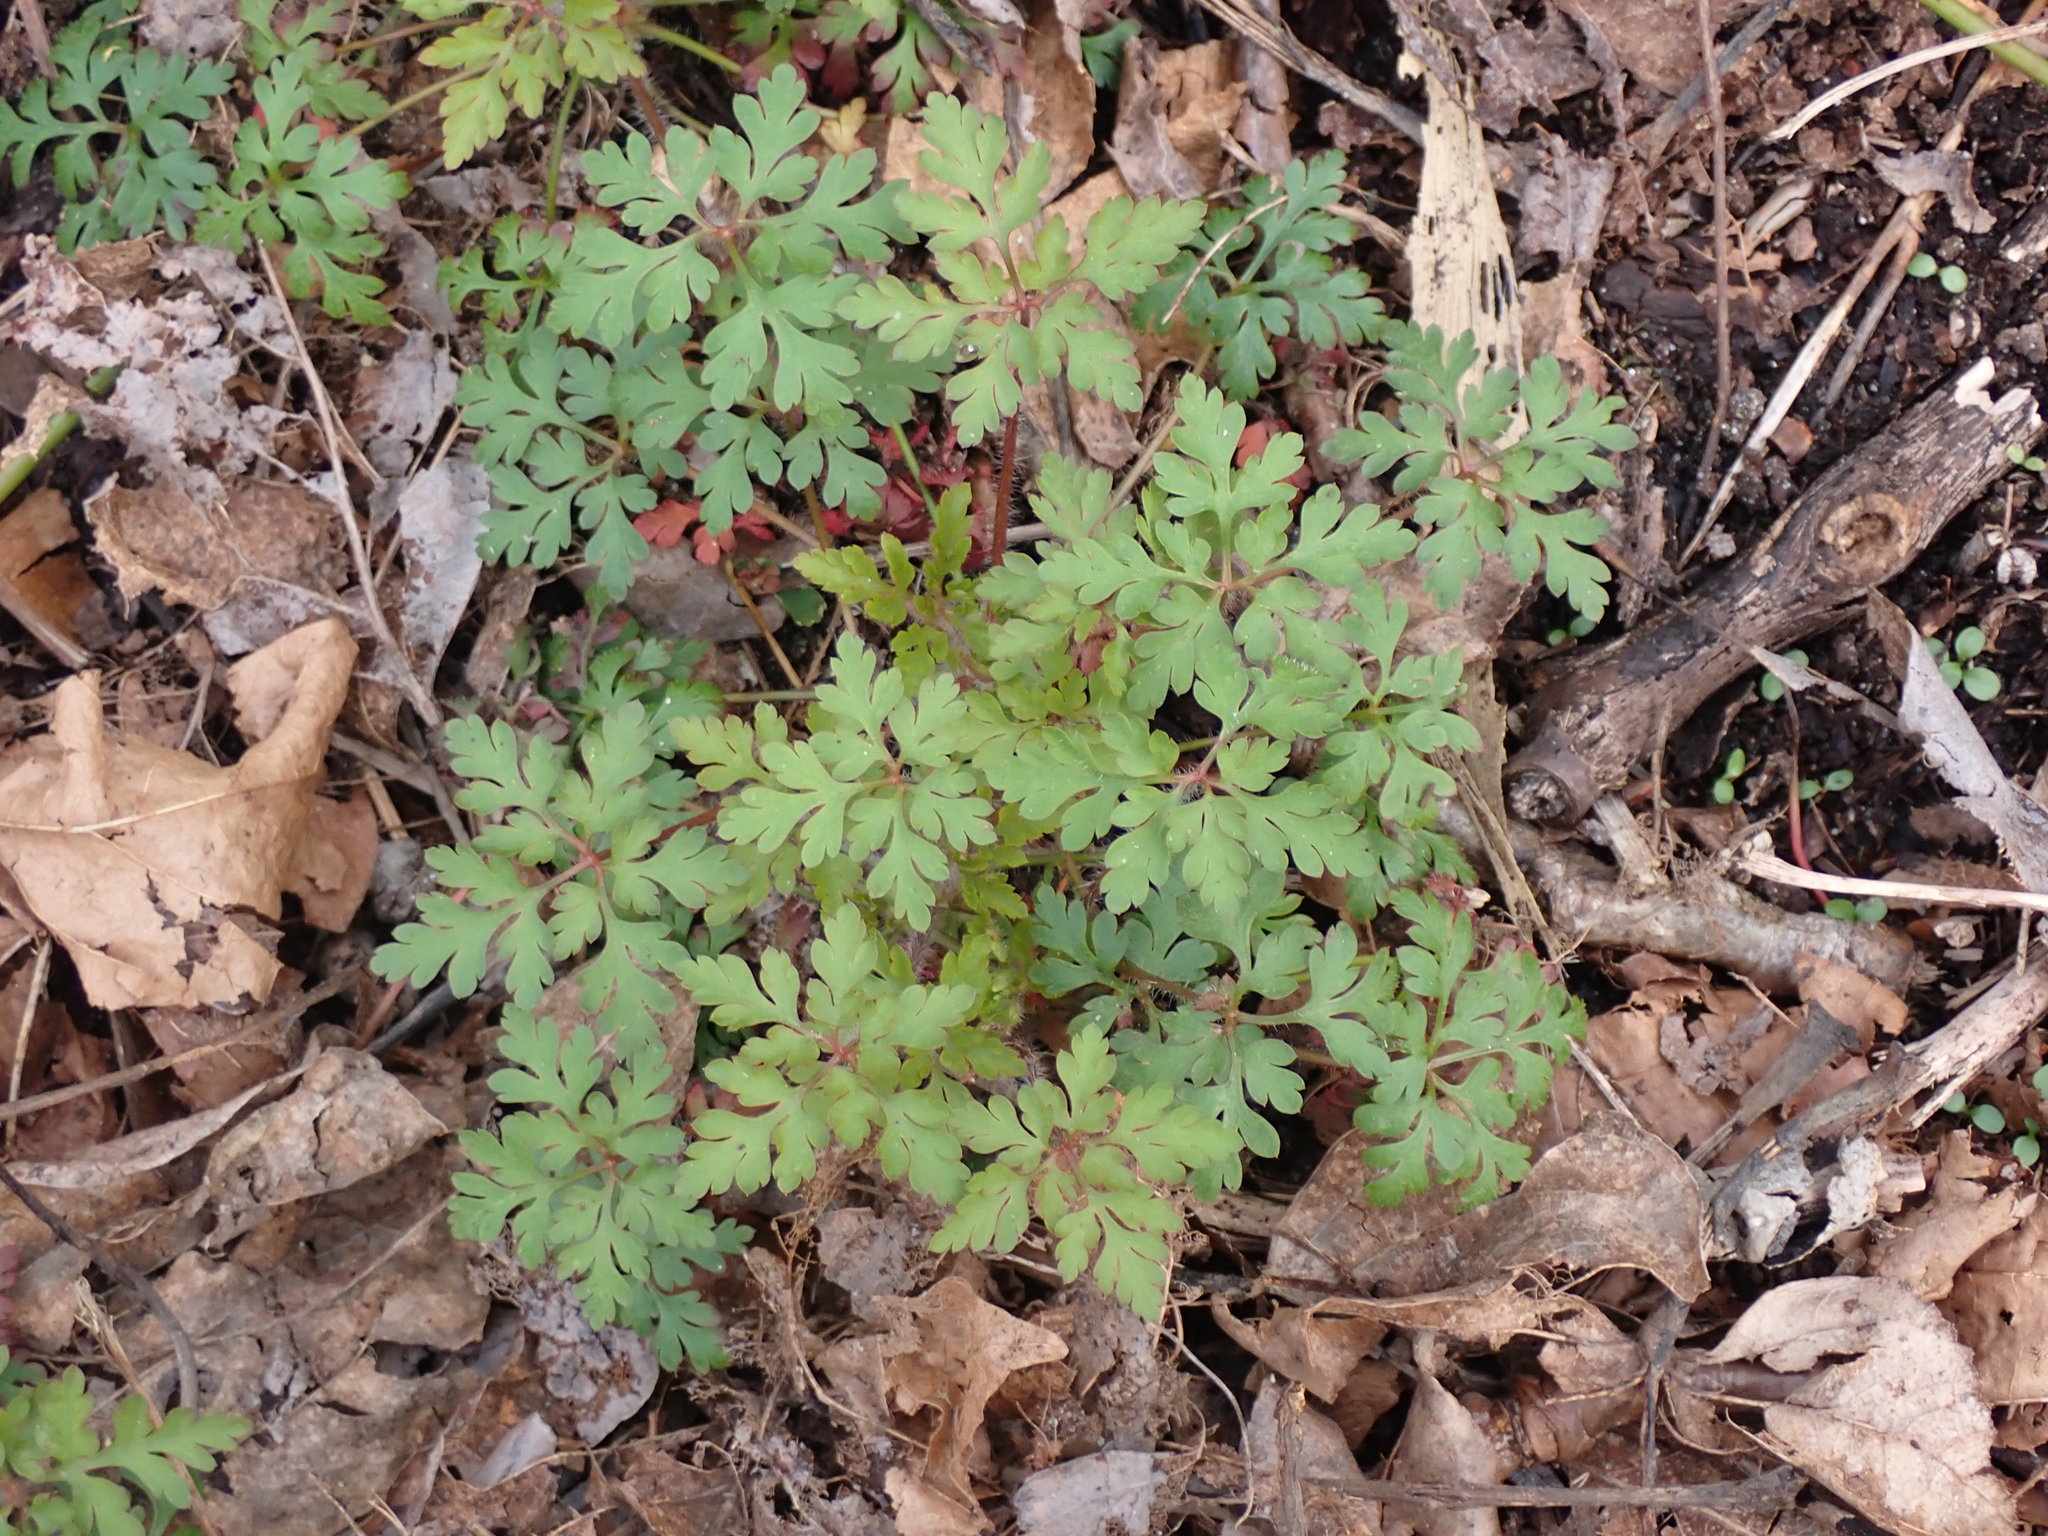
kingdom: Plantae
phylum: Tracheophyta
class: Magnoliopsida
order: Geraniales
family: Geraniaceae
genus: Geranium
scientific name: Geranium robertianum
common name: Herb-robert
